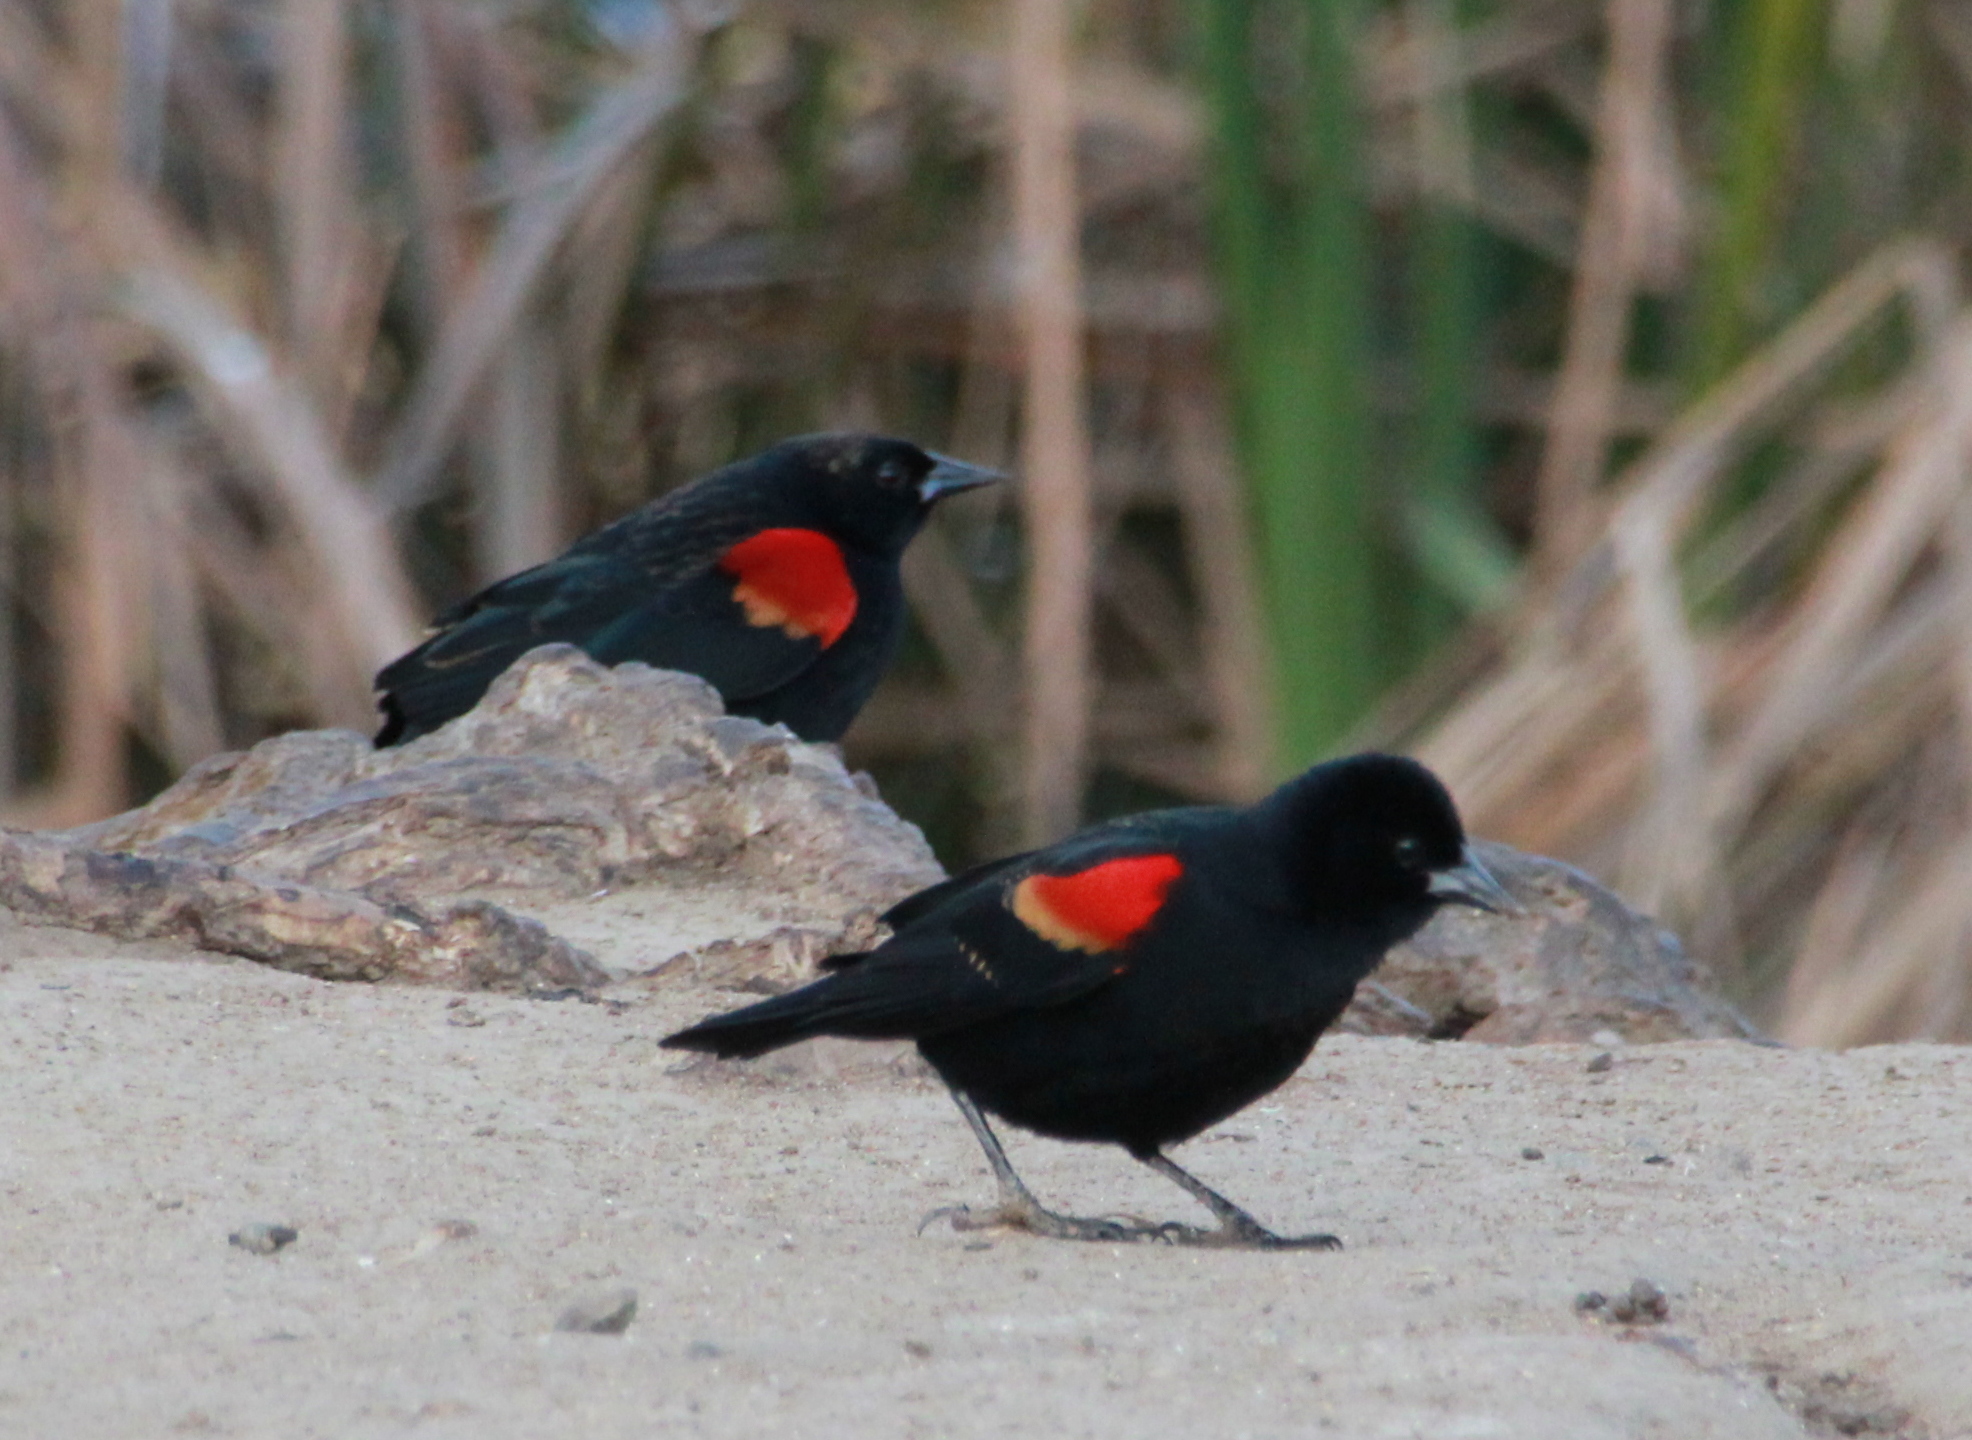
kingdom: Animalia
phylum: Chordata
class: Aves
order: Passeriformes
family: Icteridae
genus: Agelaius
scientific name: Agelaius phoeniceus
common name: Red-winged blackbird
